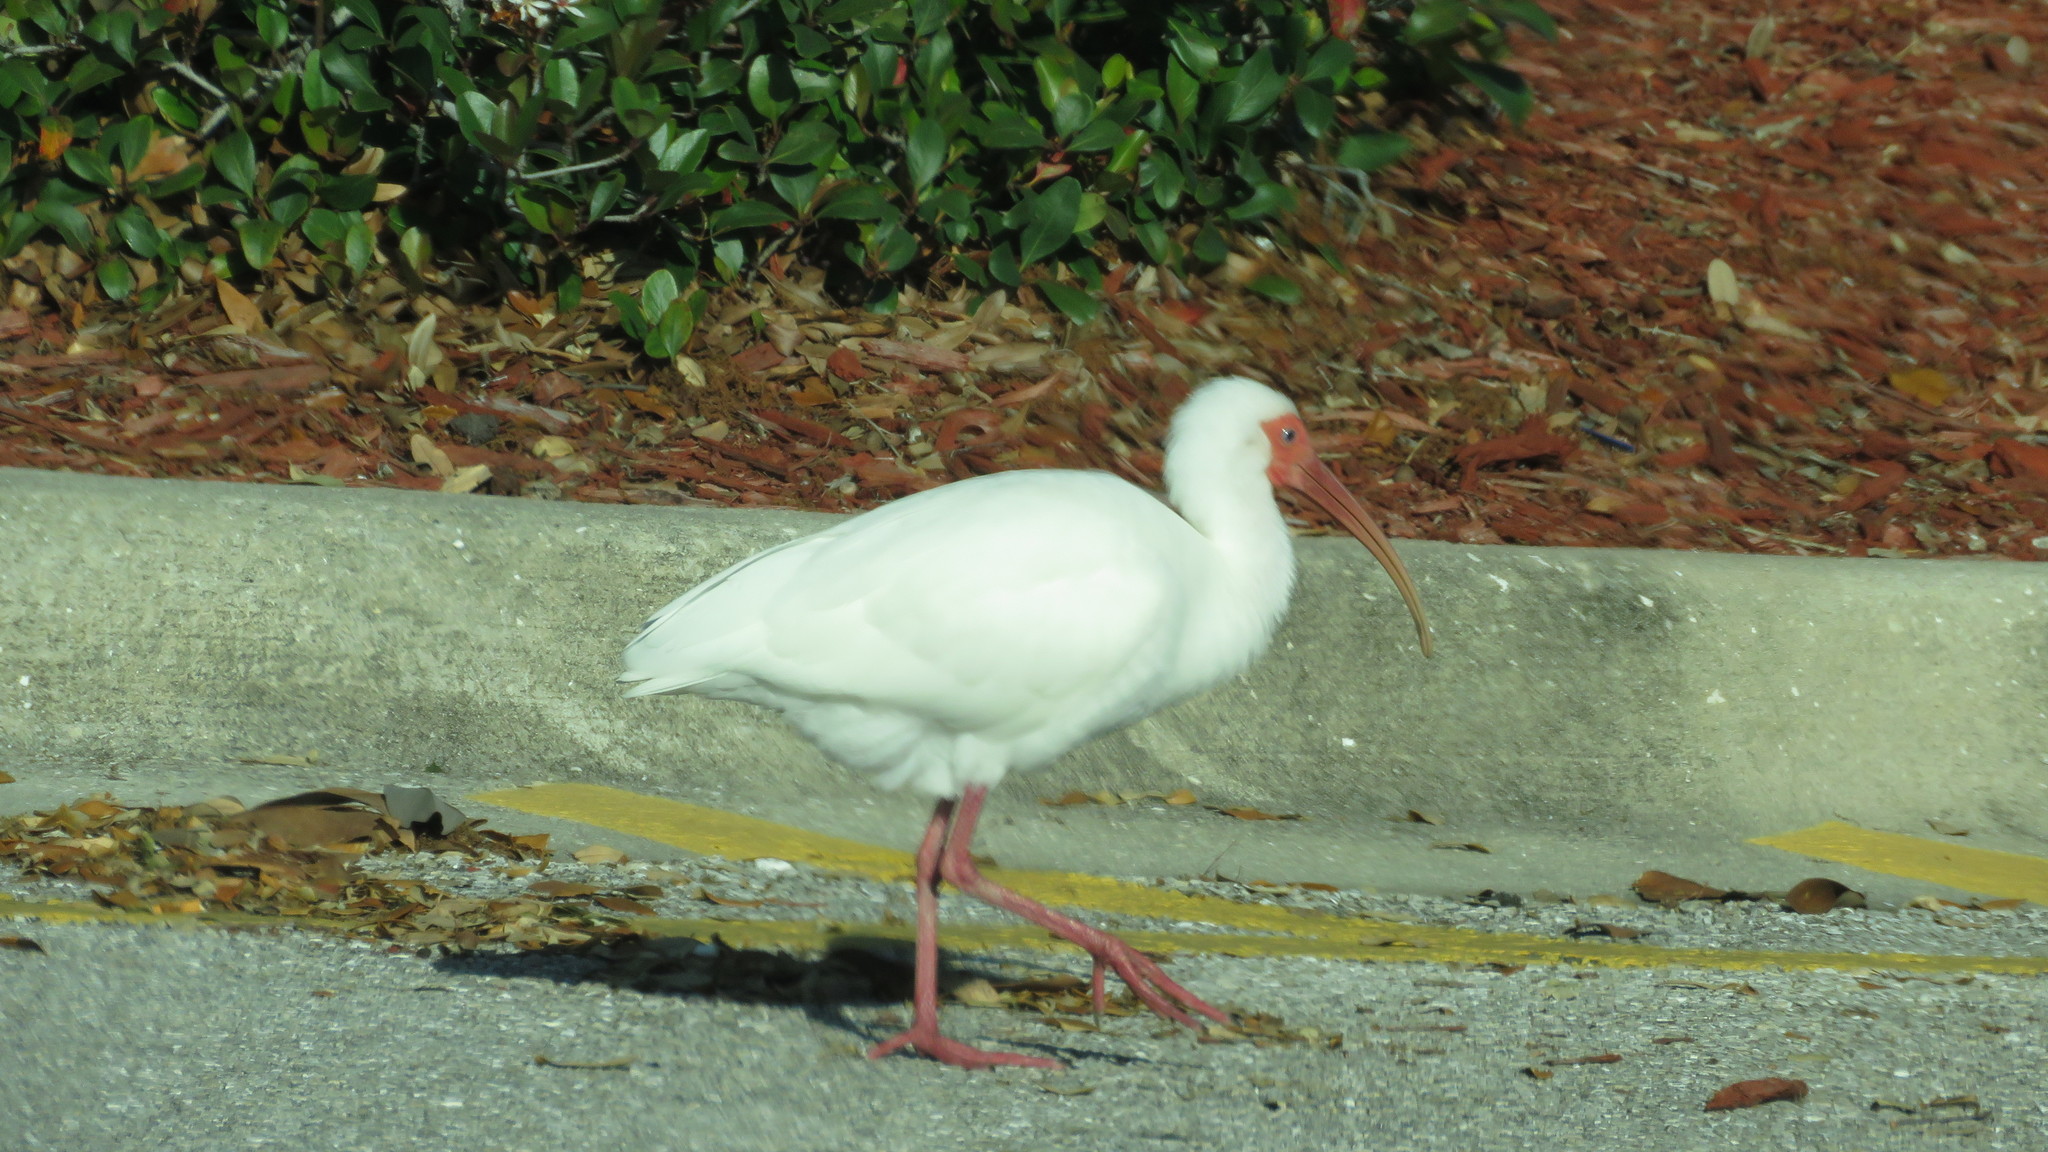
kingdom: Animalia
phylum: Chordata
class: Aves
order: Pelecaniformes
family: Threskiornithidae
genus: Eudocimus
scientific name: Eudocimus albus
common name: White ibis
